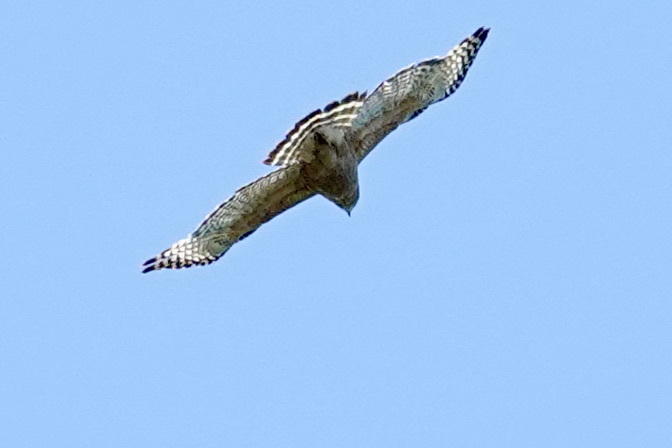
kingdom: Animalia
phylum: Chordata
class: Aves
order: Accipitriformes
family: Accipitridae
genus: Buteo
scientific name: Buteo lineatus
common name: Red-shouldered hawk
